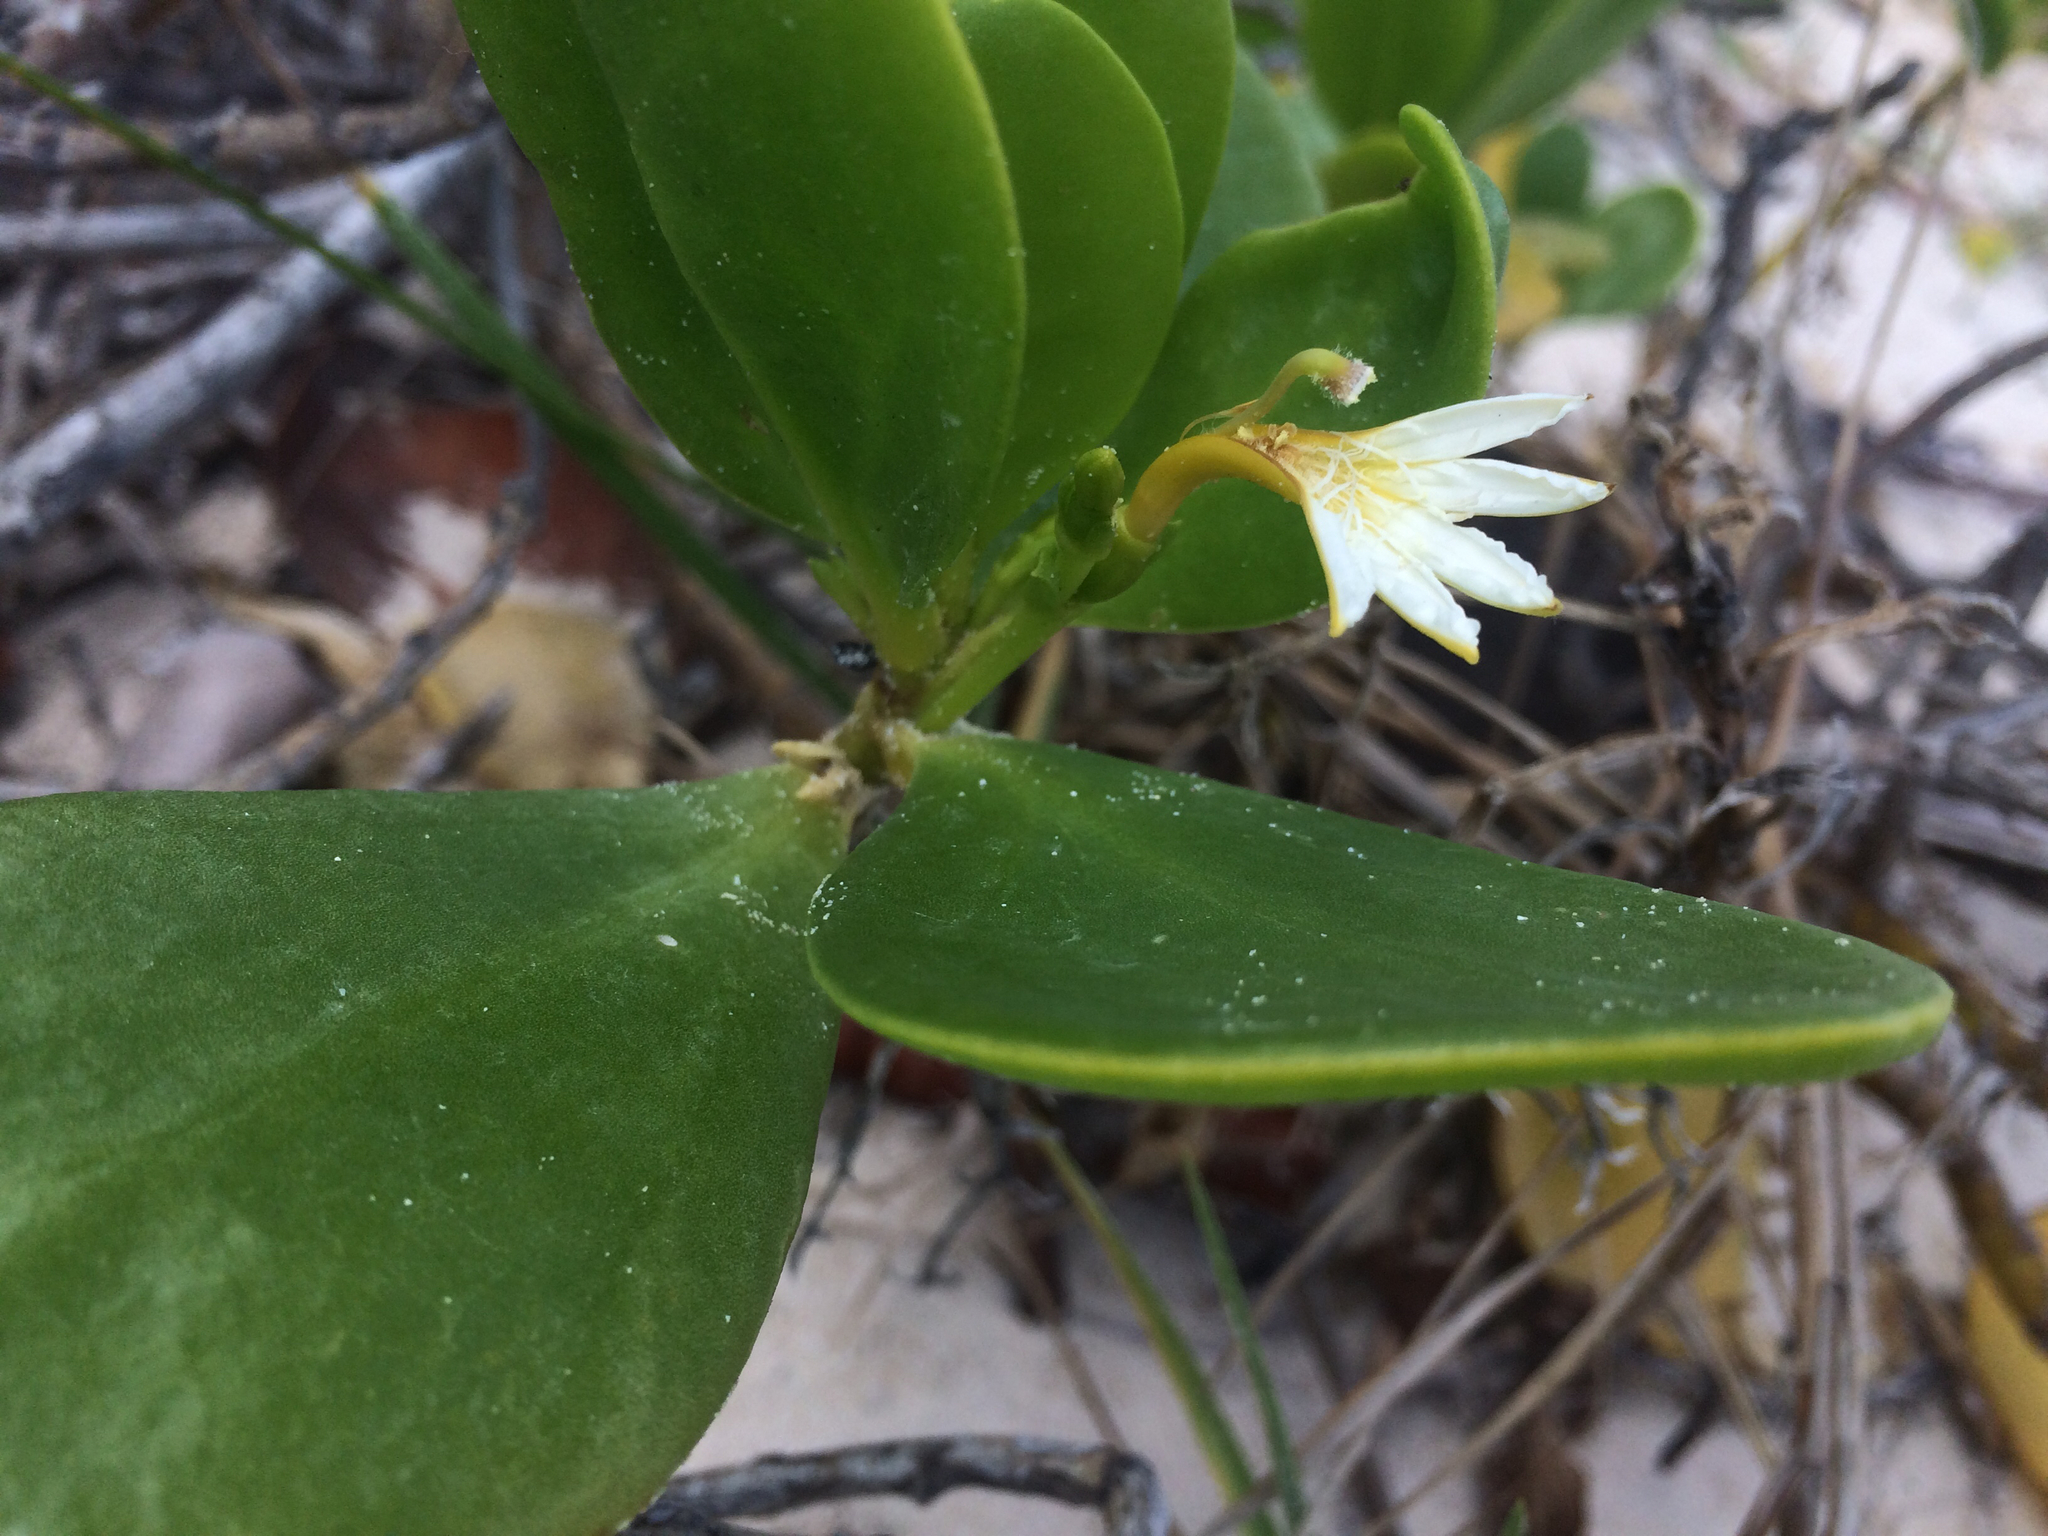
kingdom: Plantae
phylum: Tracheophyta
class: Magnoliopsida
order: Asterales
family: Goodeniaceae
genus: Scaevola
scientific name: Scaevola plumieri
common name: Gull feed
